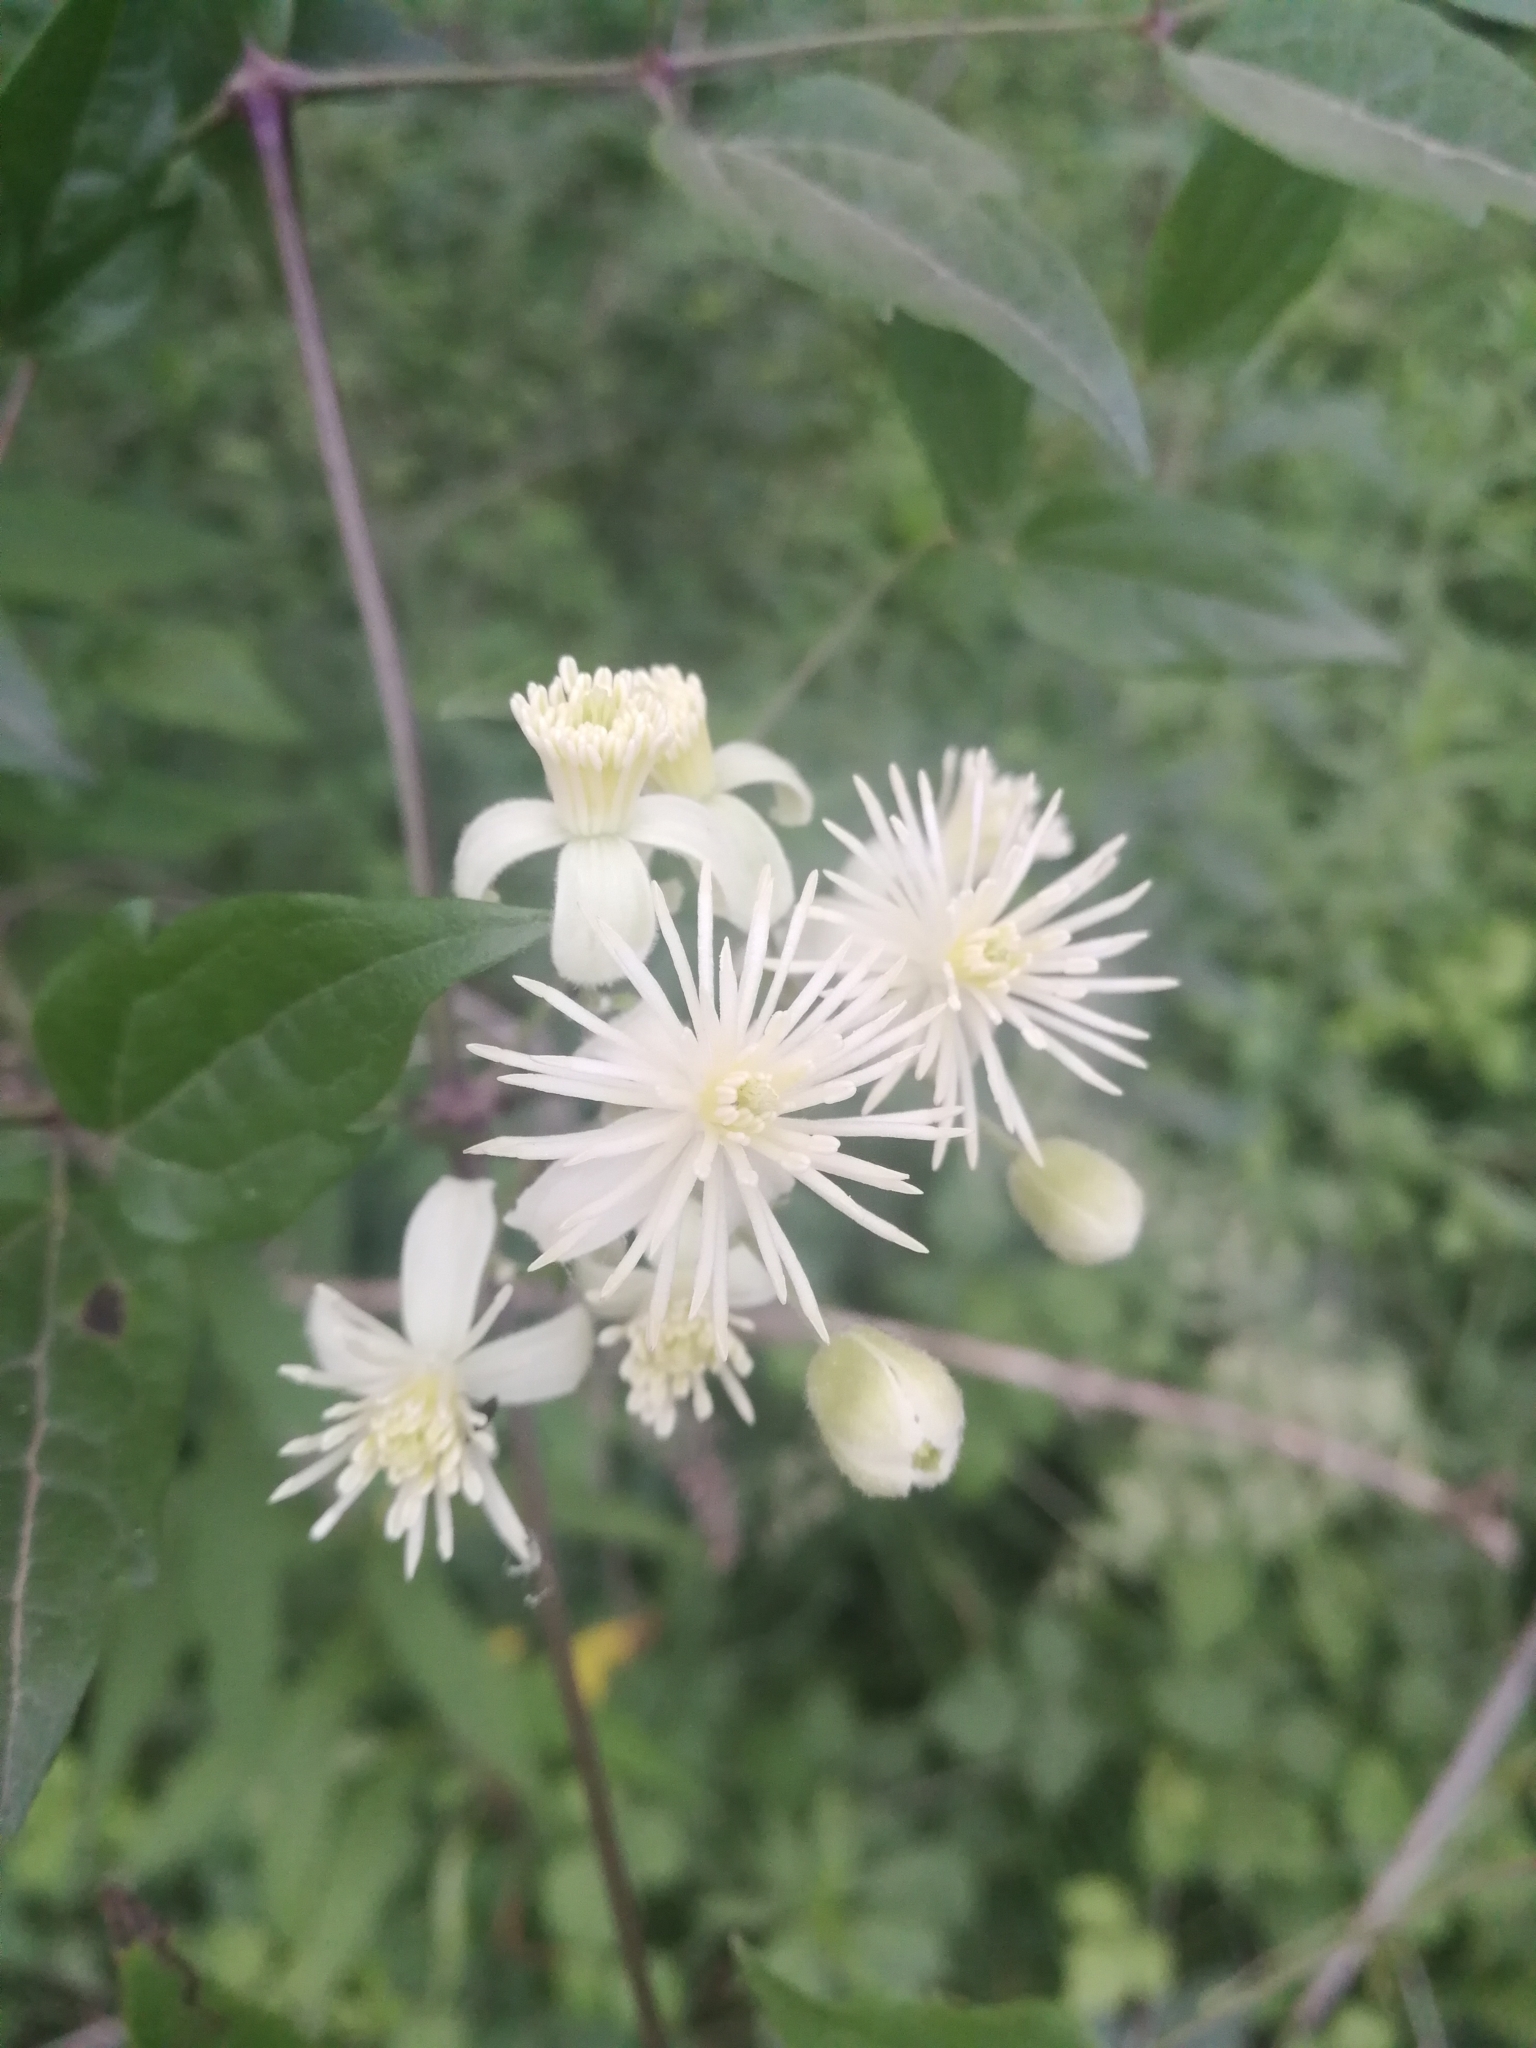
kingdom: Plantae
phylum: Tracheophyta
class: Magnoliopsida
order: Ranunculales
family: Ranunculaceae
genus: Clematis
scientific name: Clematis vitalba
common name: Evergreen clematis
